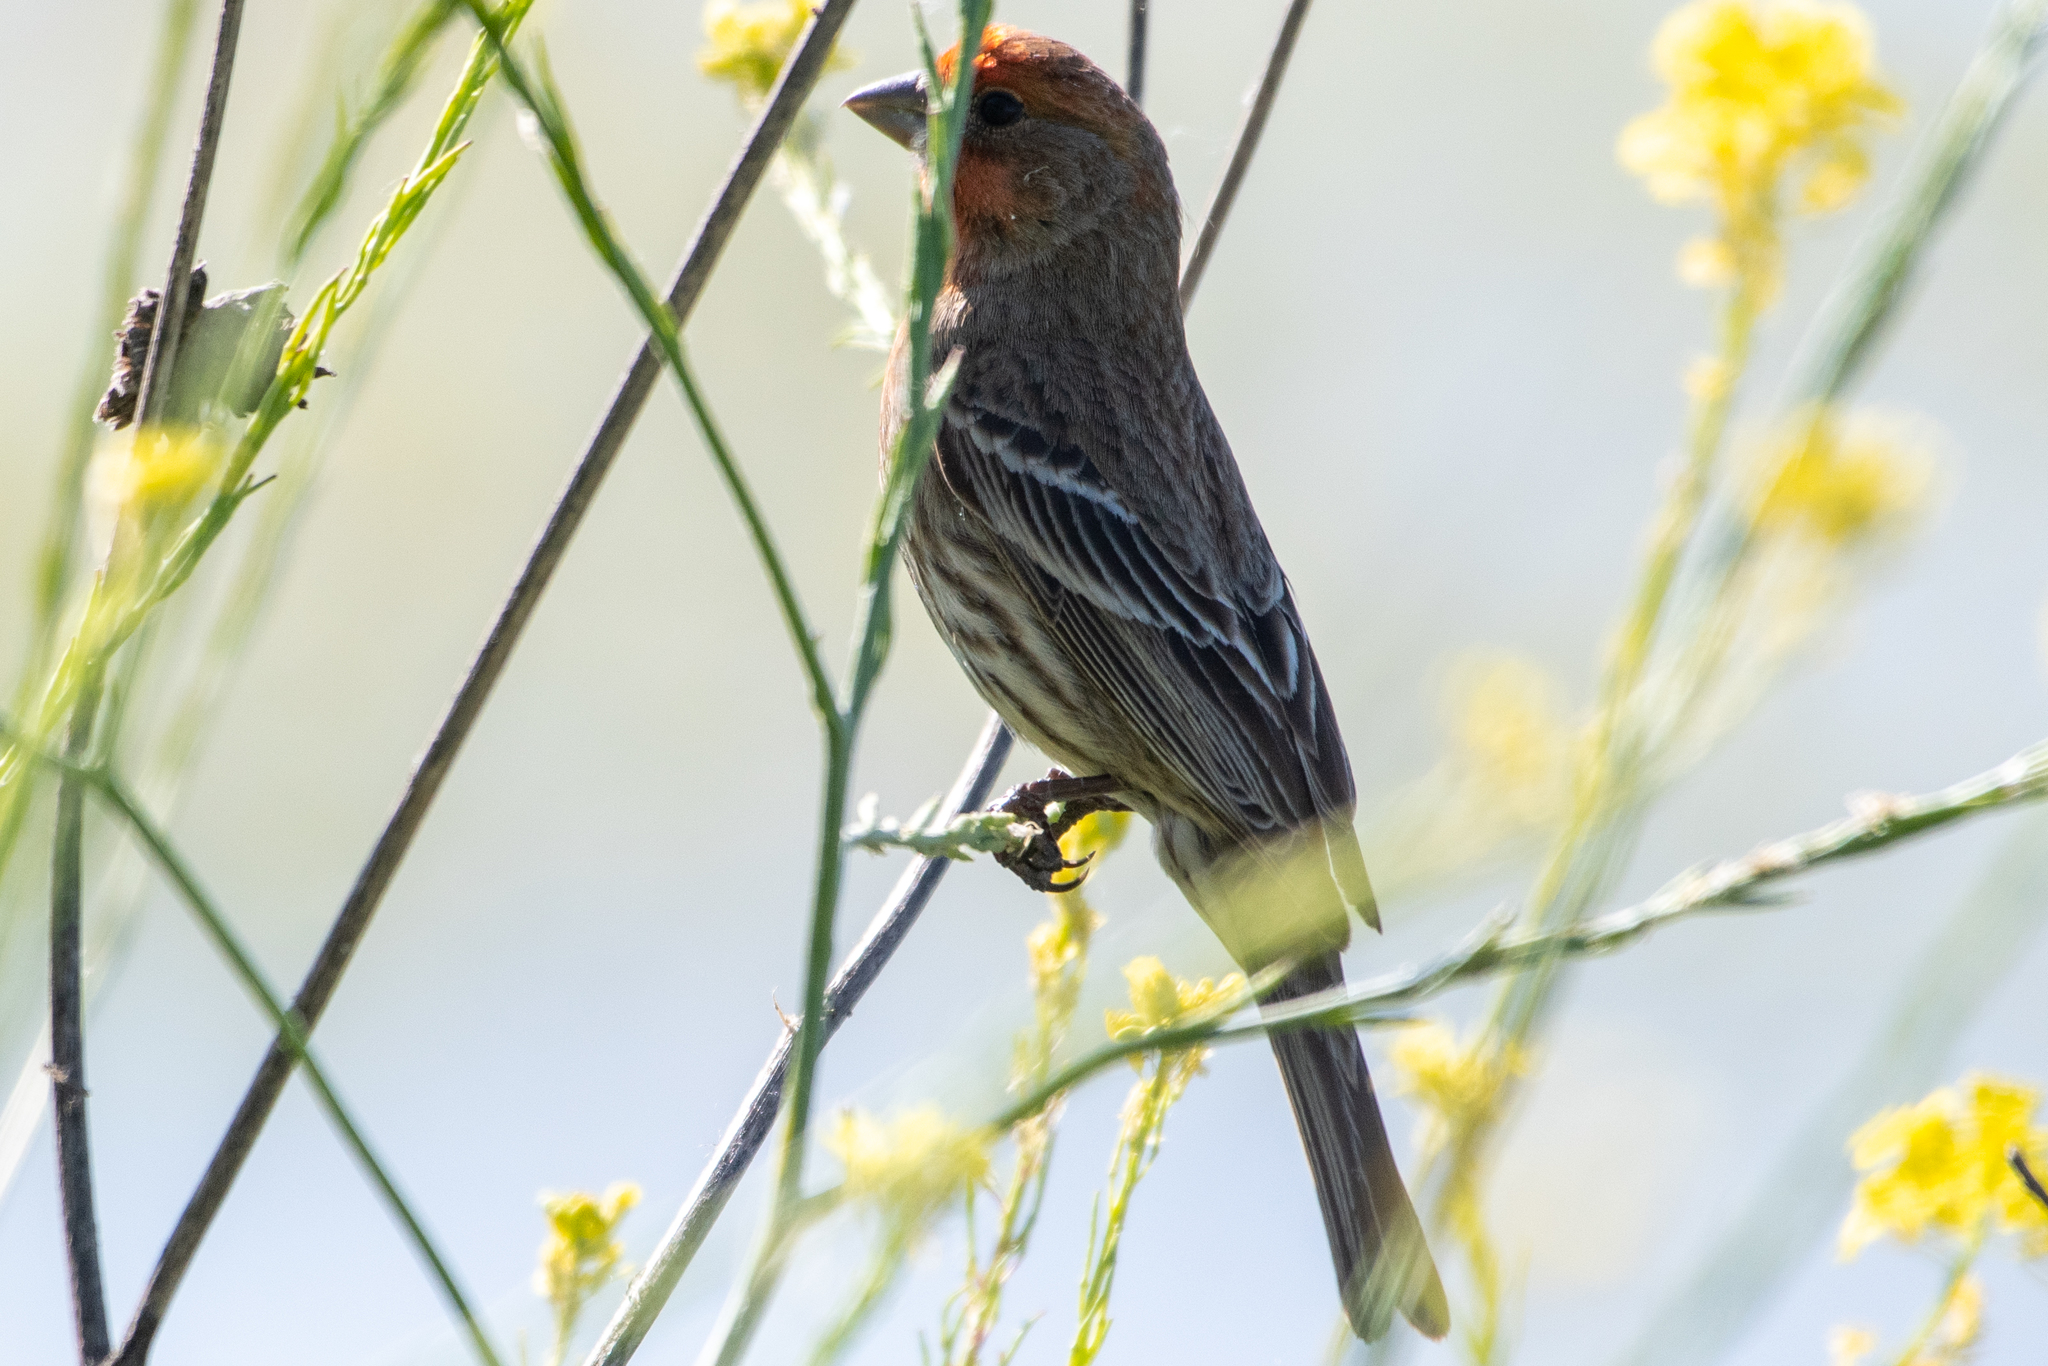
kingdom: Animalia
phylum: Chordata
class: Aves
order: Passeriformes
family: Fringillidae
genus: Haemorhous
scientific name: Haemorhous mexicanus
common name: House finch
